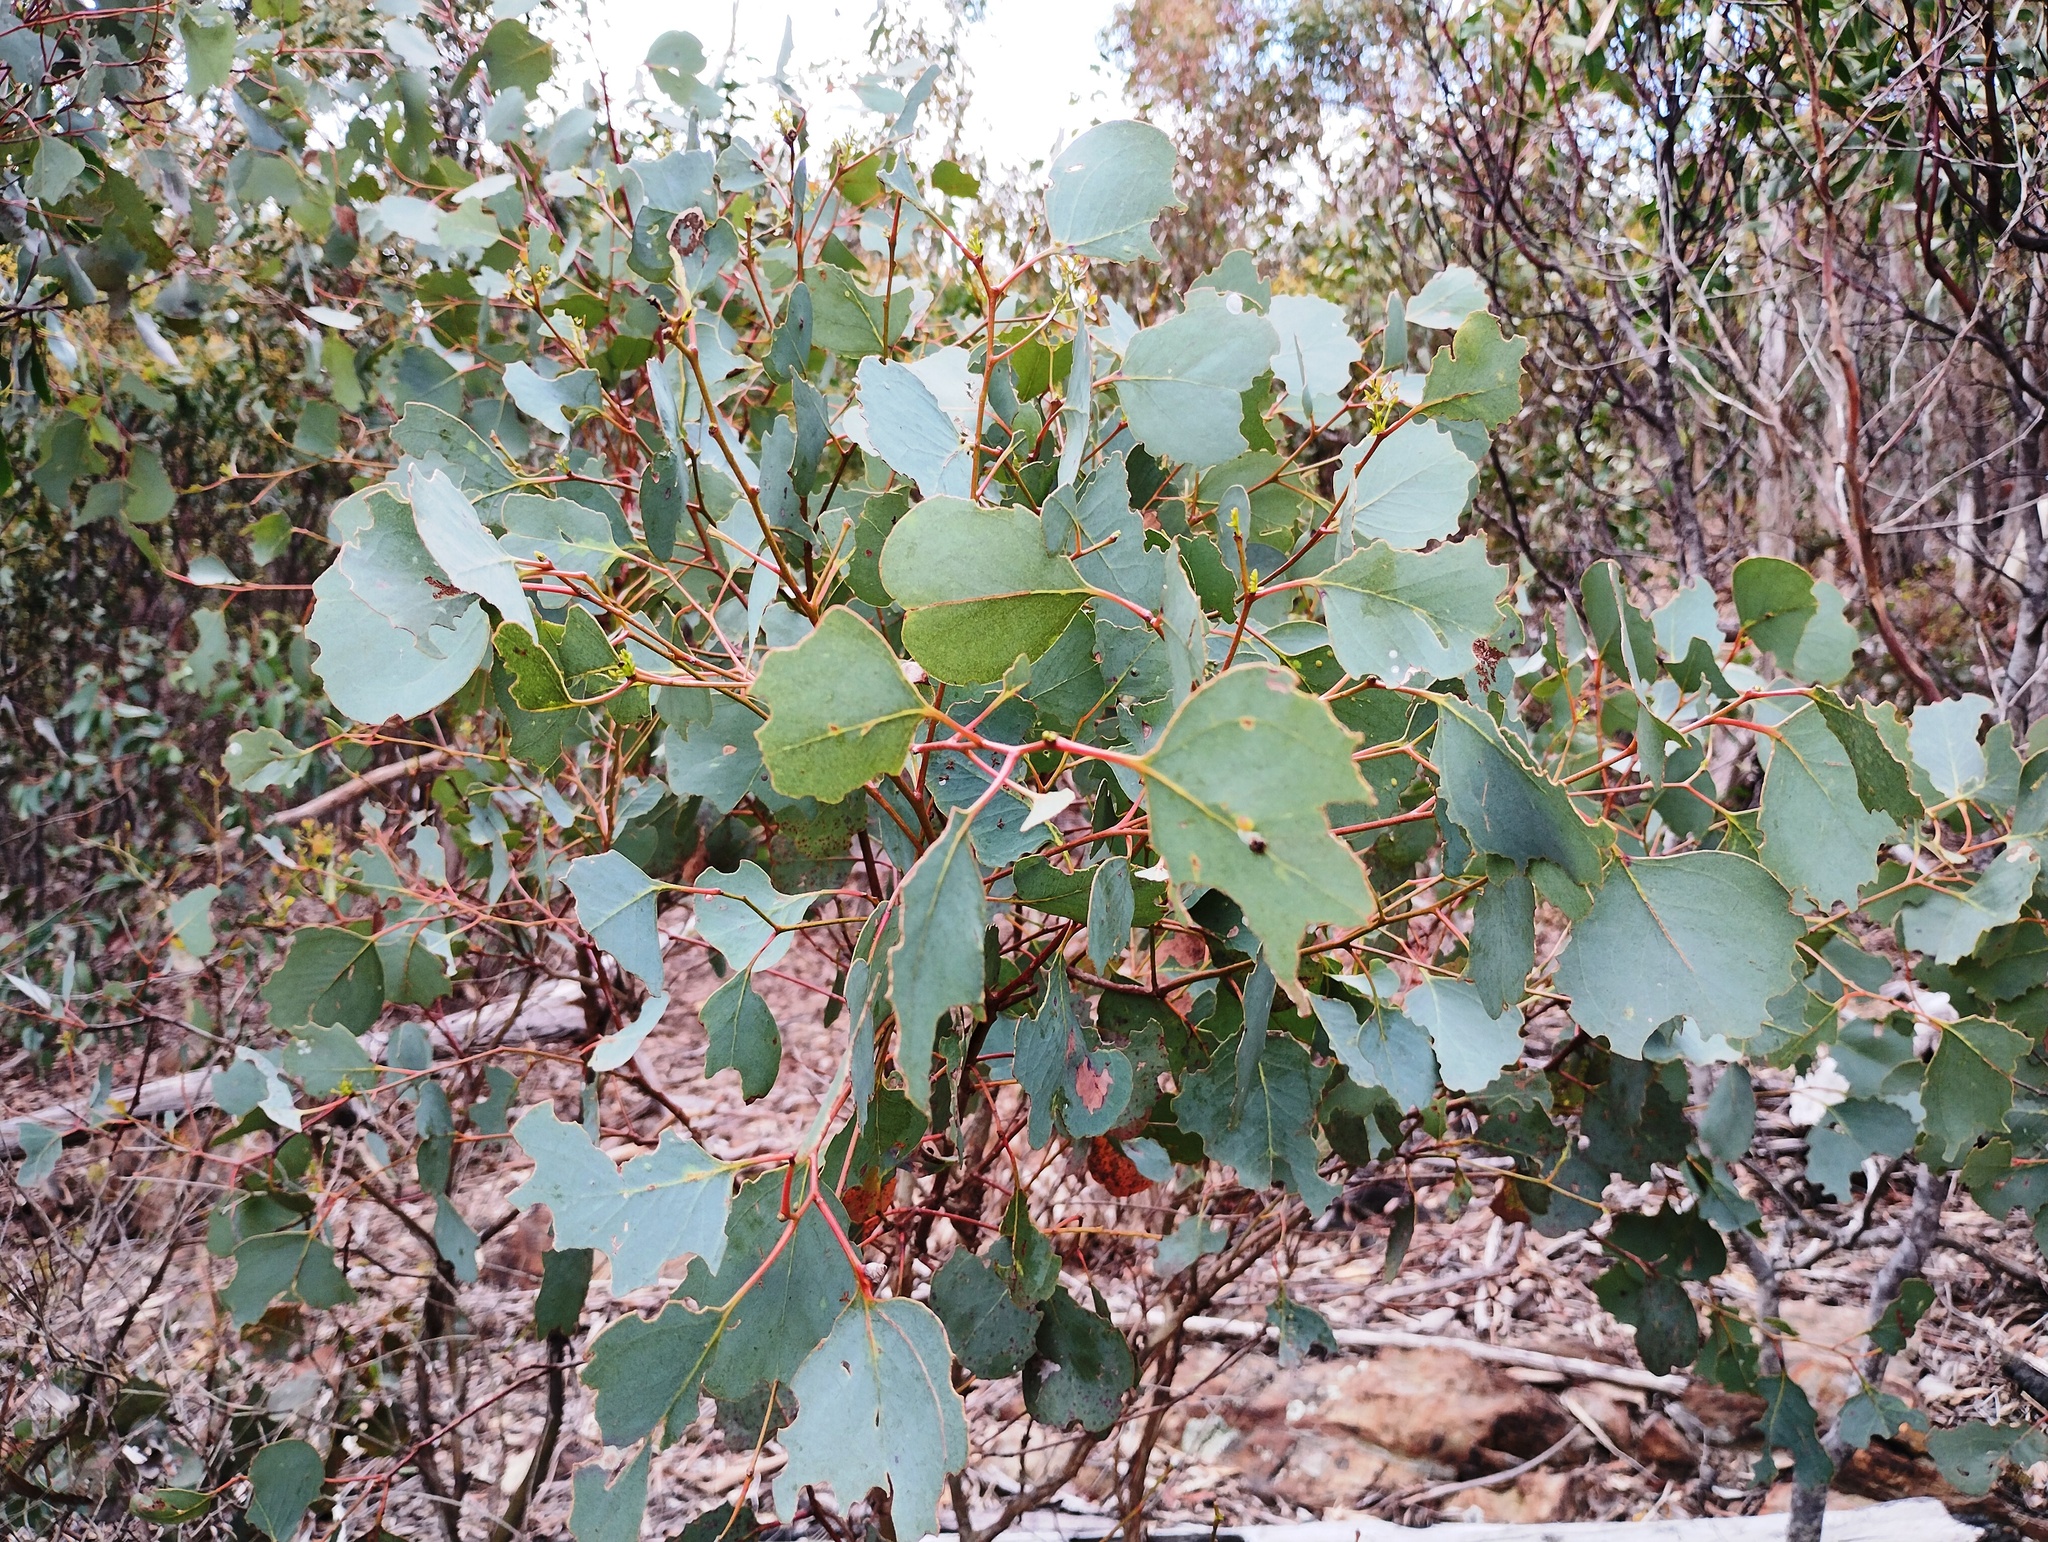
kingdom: Plantae
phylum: Tracheophyta
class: Magnoliopsida
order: Myrtales
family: Myrtaceae
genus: Eucalyptus
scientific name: Eucalyptus polyanthemos
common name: Red-box
